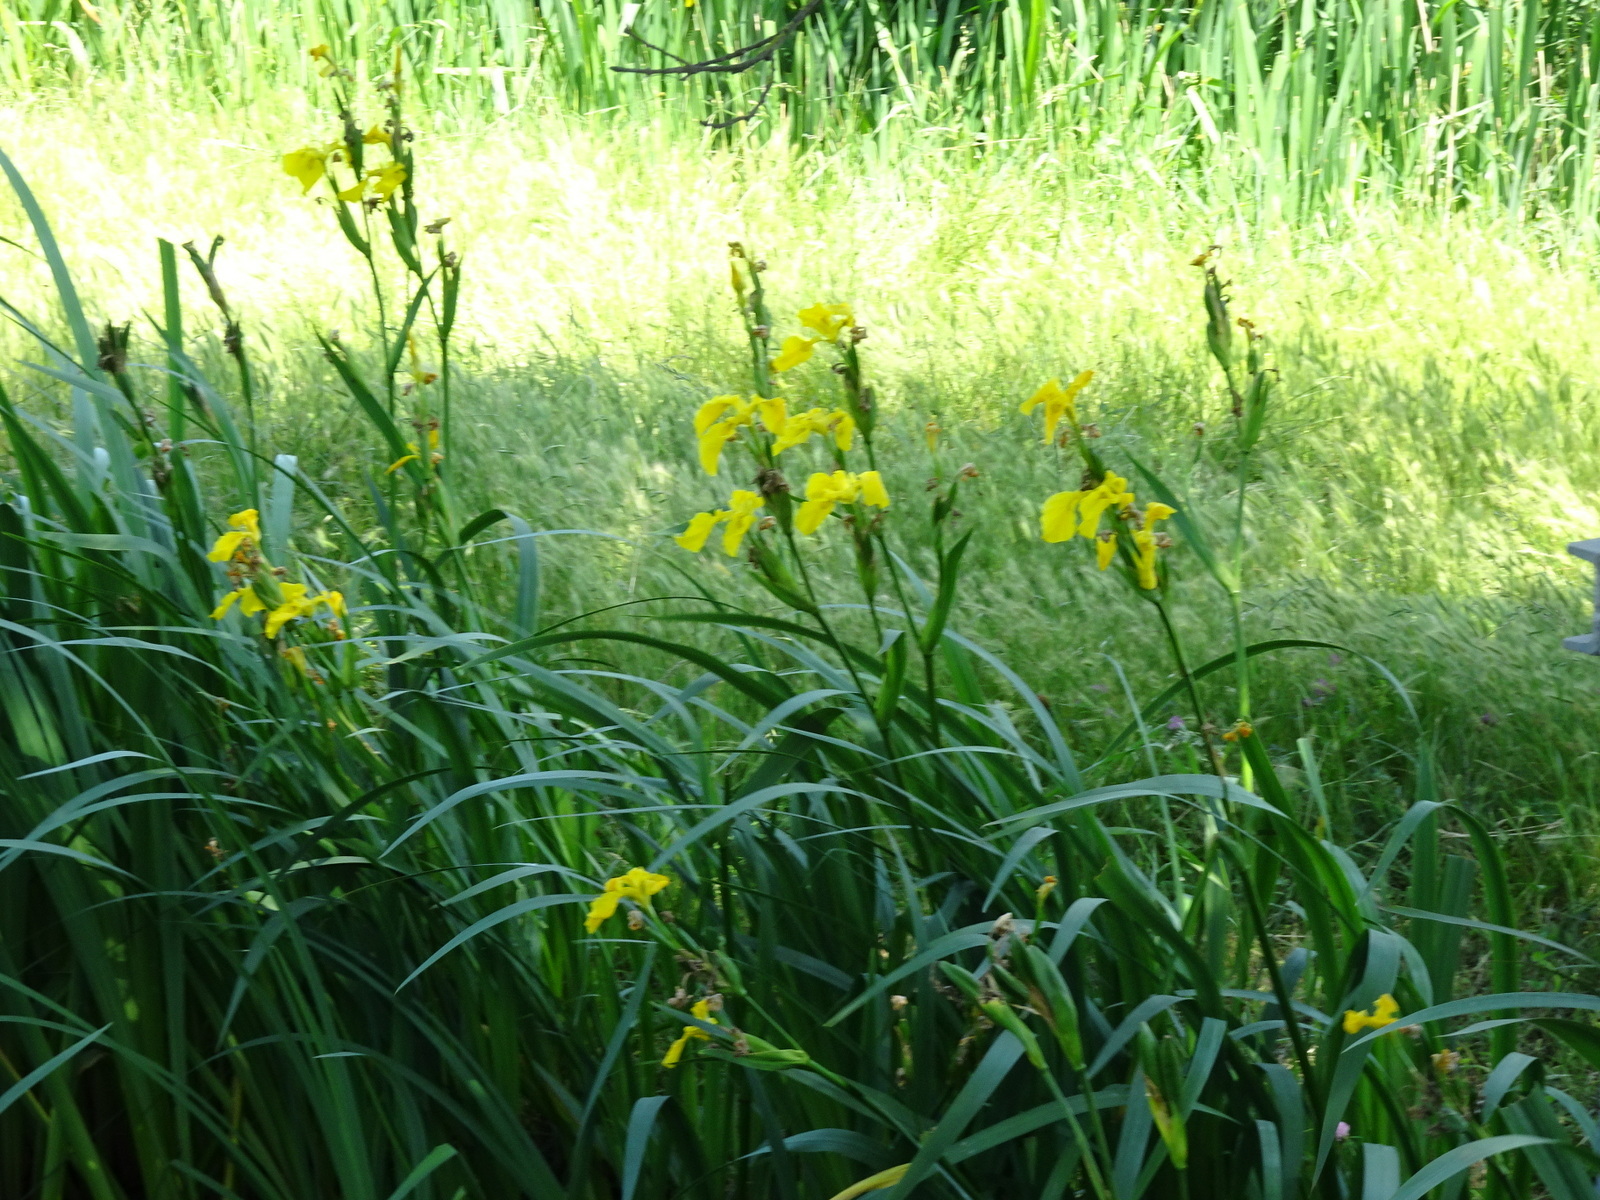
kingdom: Plantae
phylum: Tracheophyta
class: Liliopsida
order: Asparagales
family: Iridaceae
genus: Iris
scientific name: Iris pseudacorus
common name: Yellow flag
